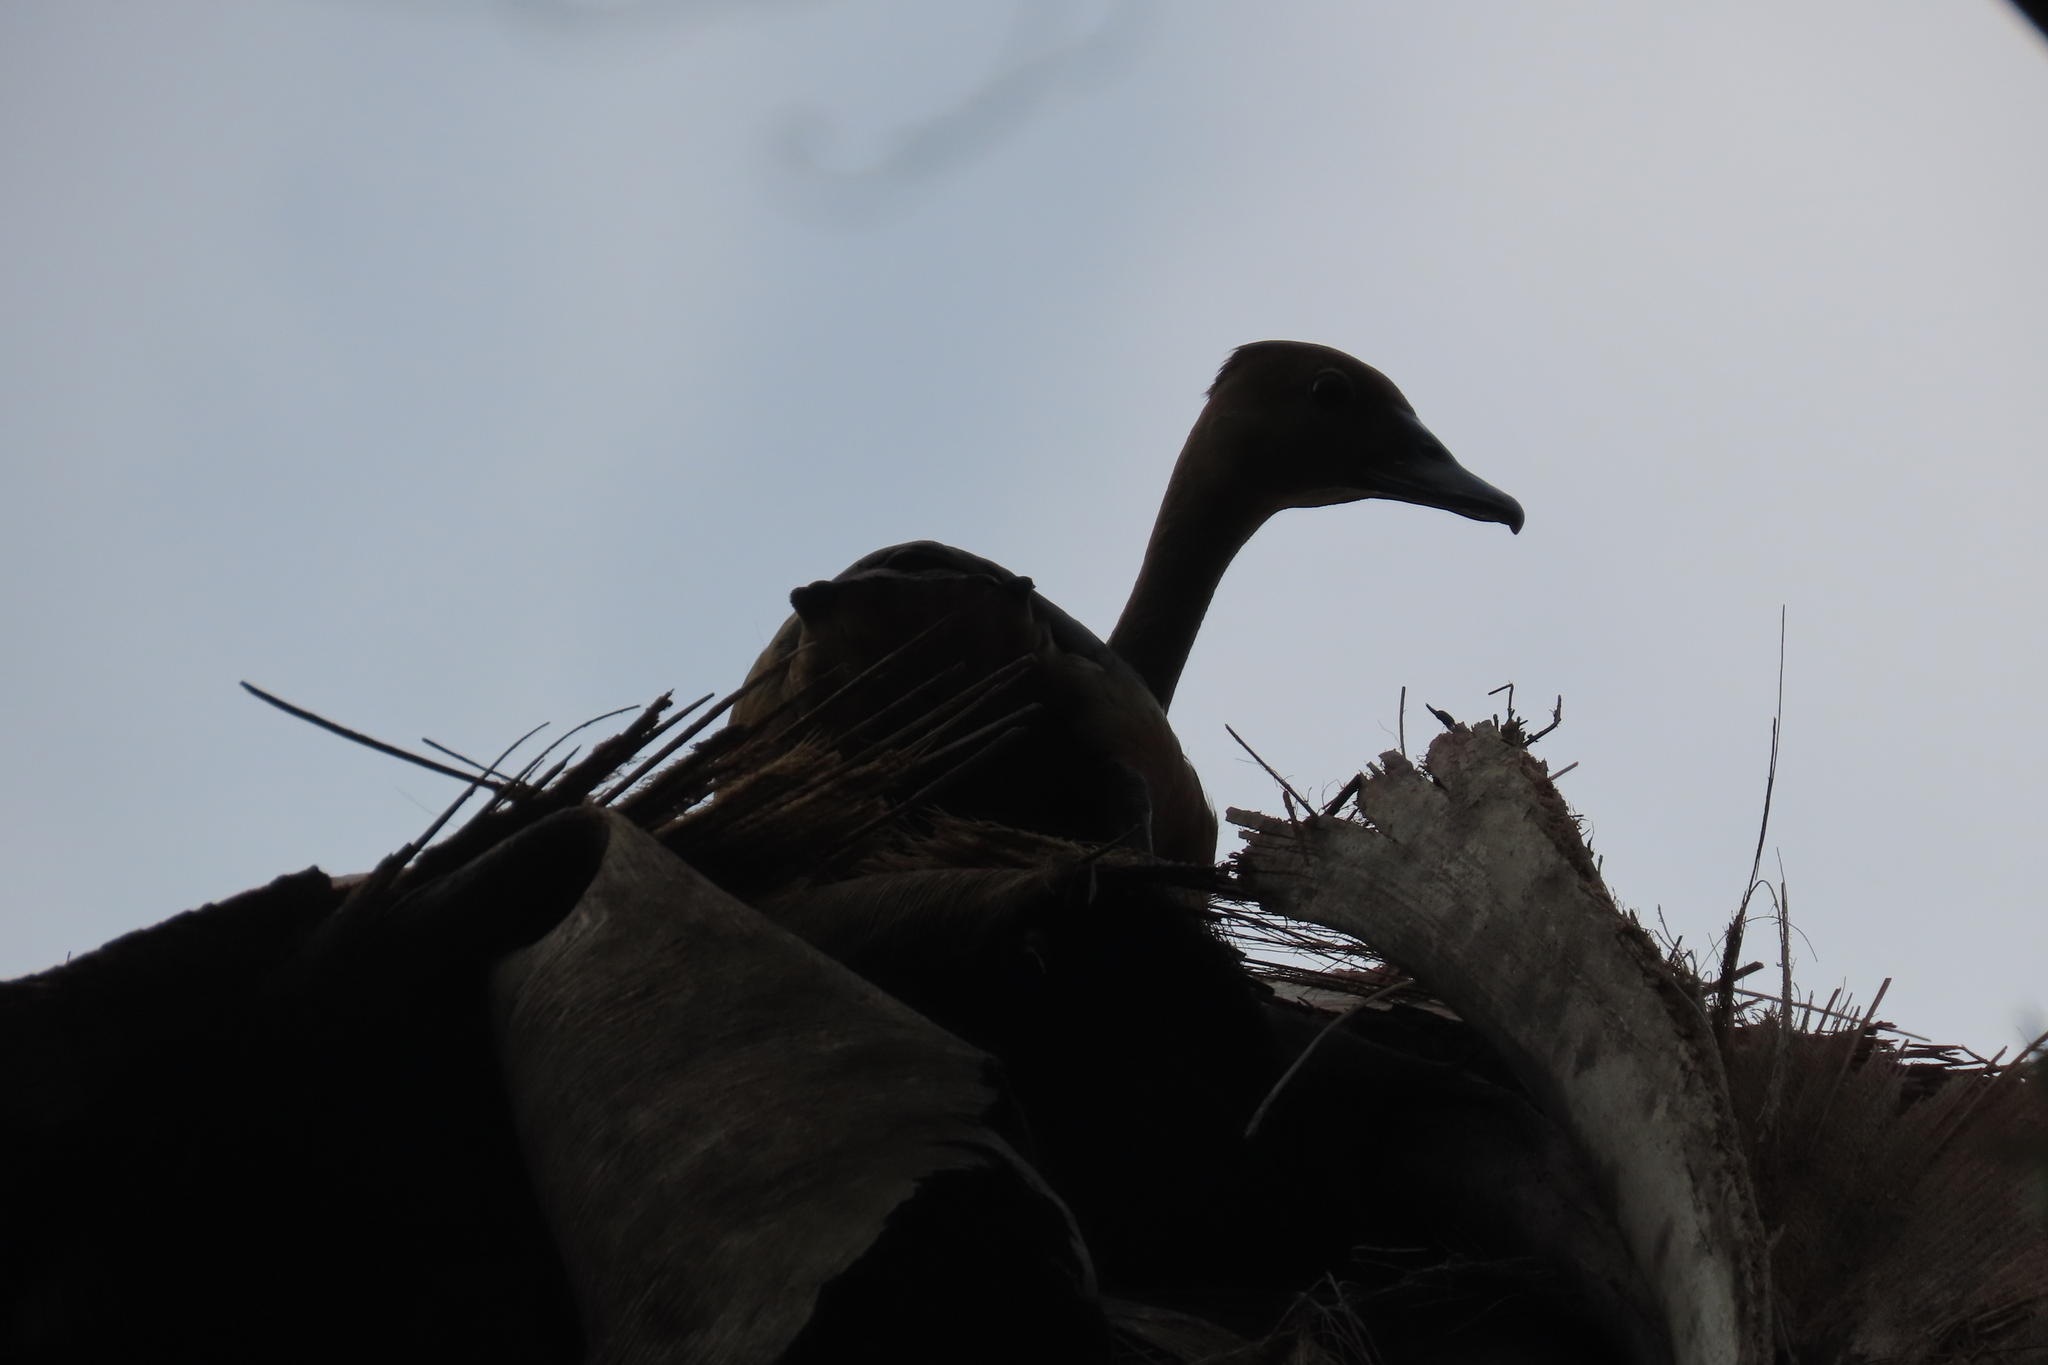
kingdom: Animalia
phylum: Chordata
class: Aves
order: Anseriformes
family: Anatidae
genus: Dendrocygna
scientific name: Dendrocygna javanica
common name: Lesser whistling-duck
